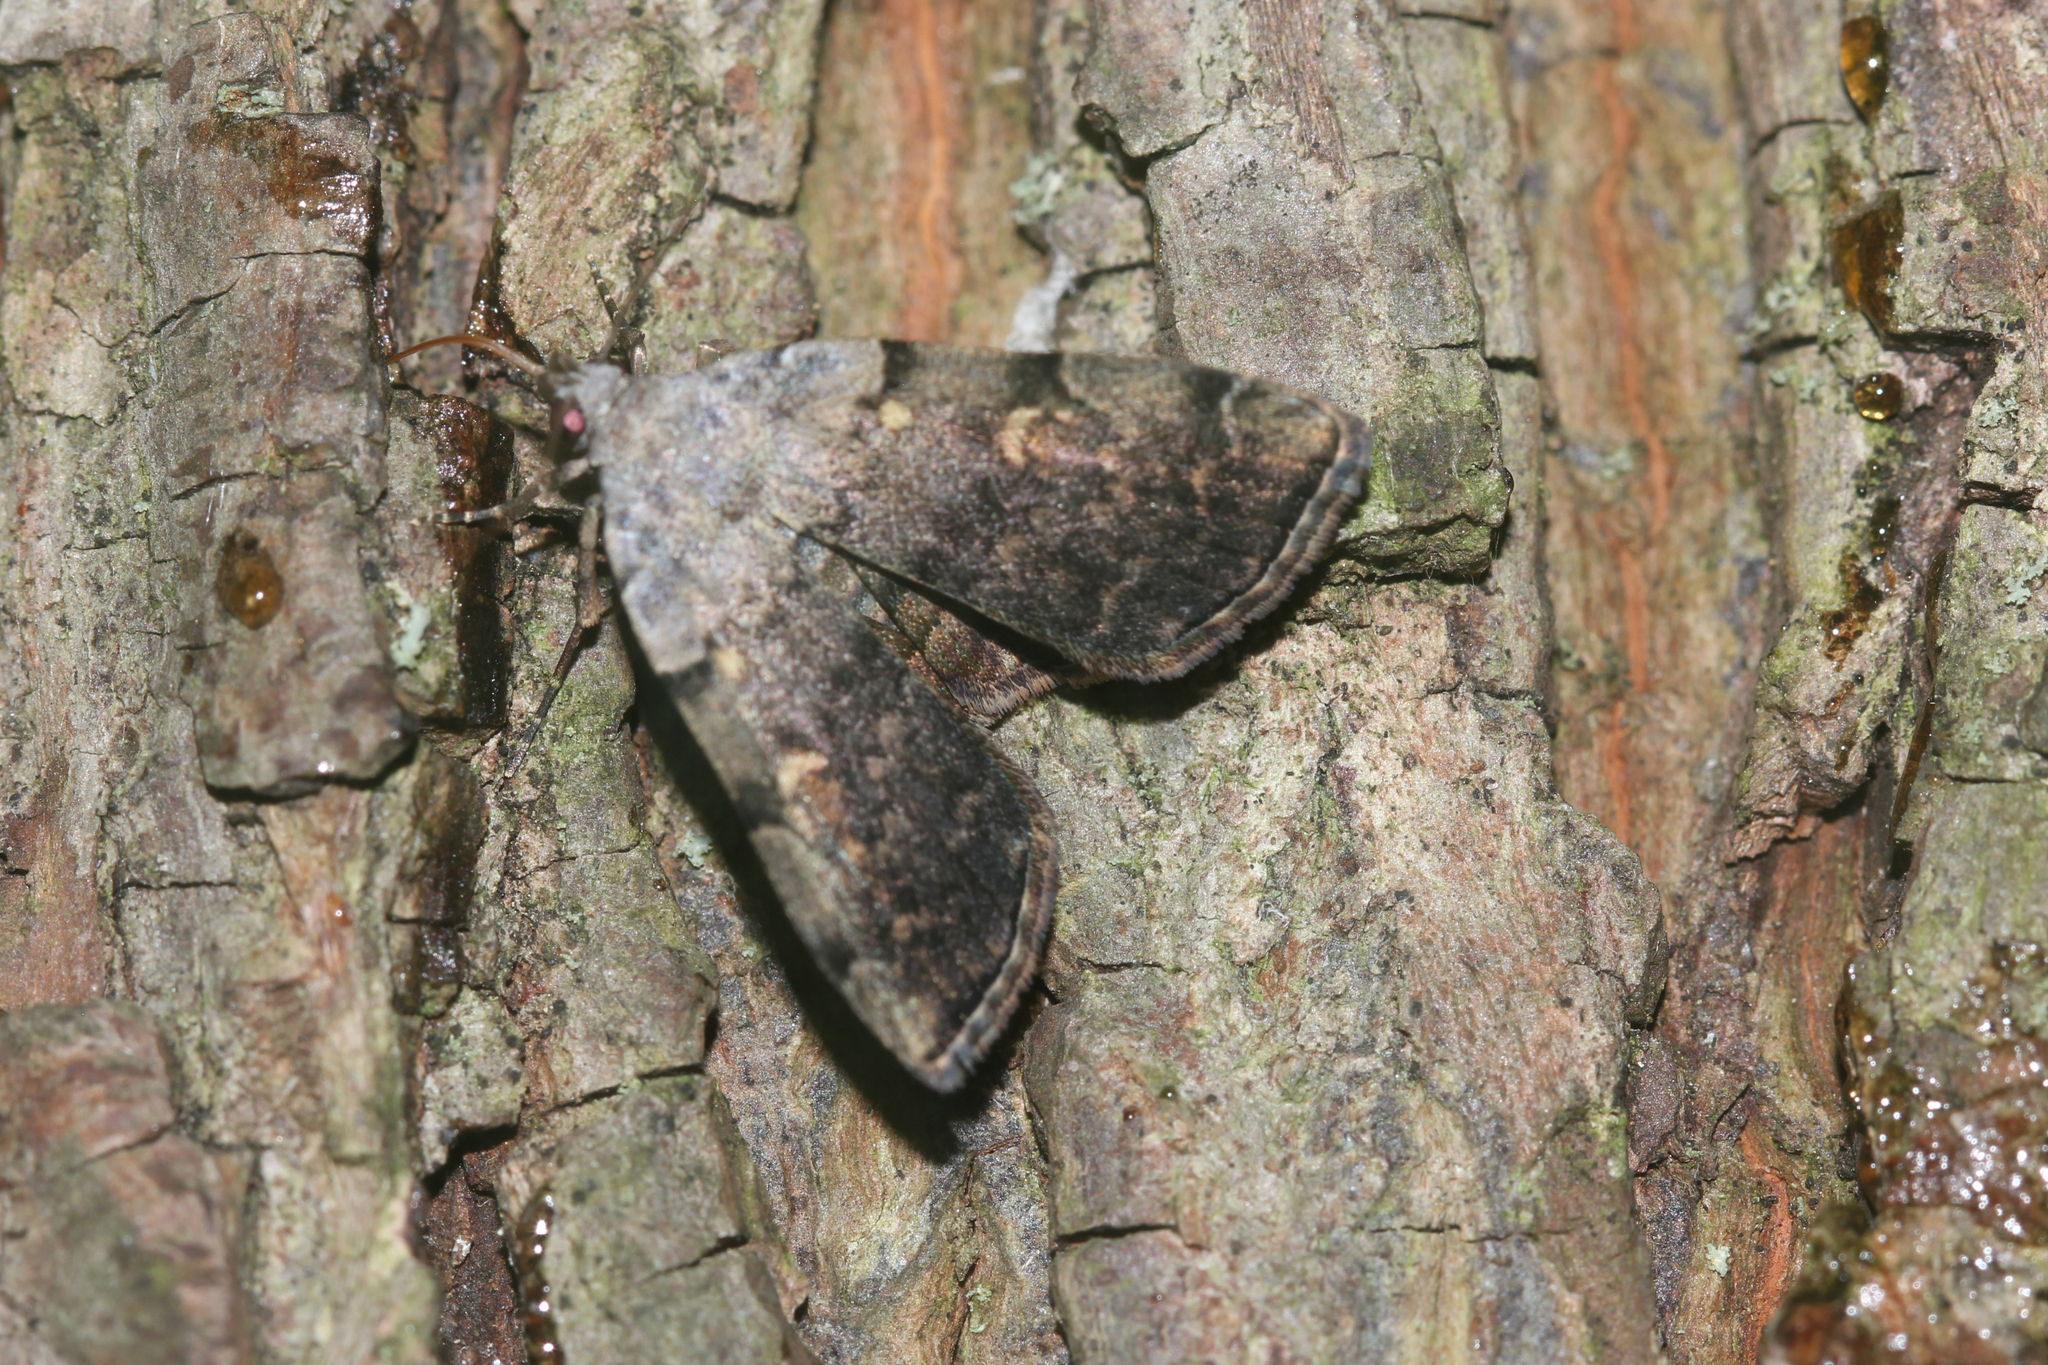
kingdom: Animalia
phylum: Arthropoda
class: Insecta
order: Lepidoptera
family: Erebidae
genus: Idia
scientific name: Idia americalis
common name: American idia moth
